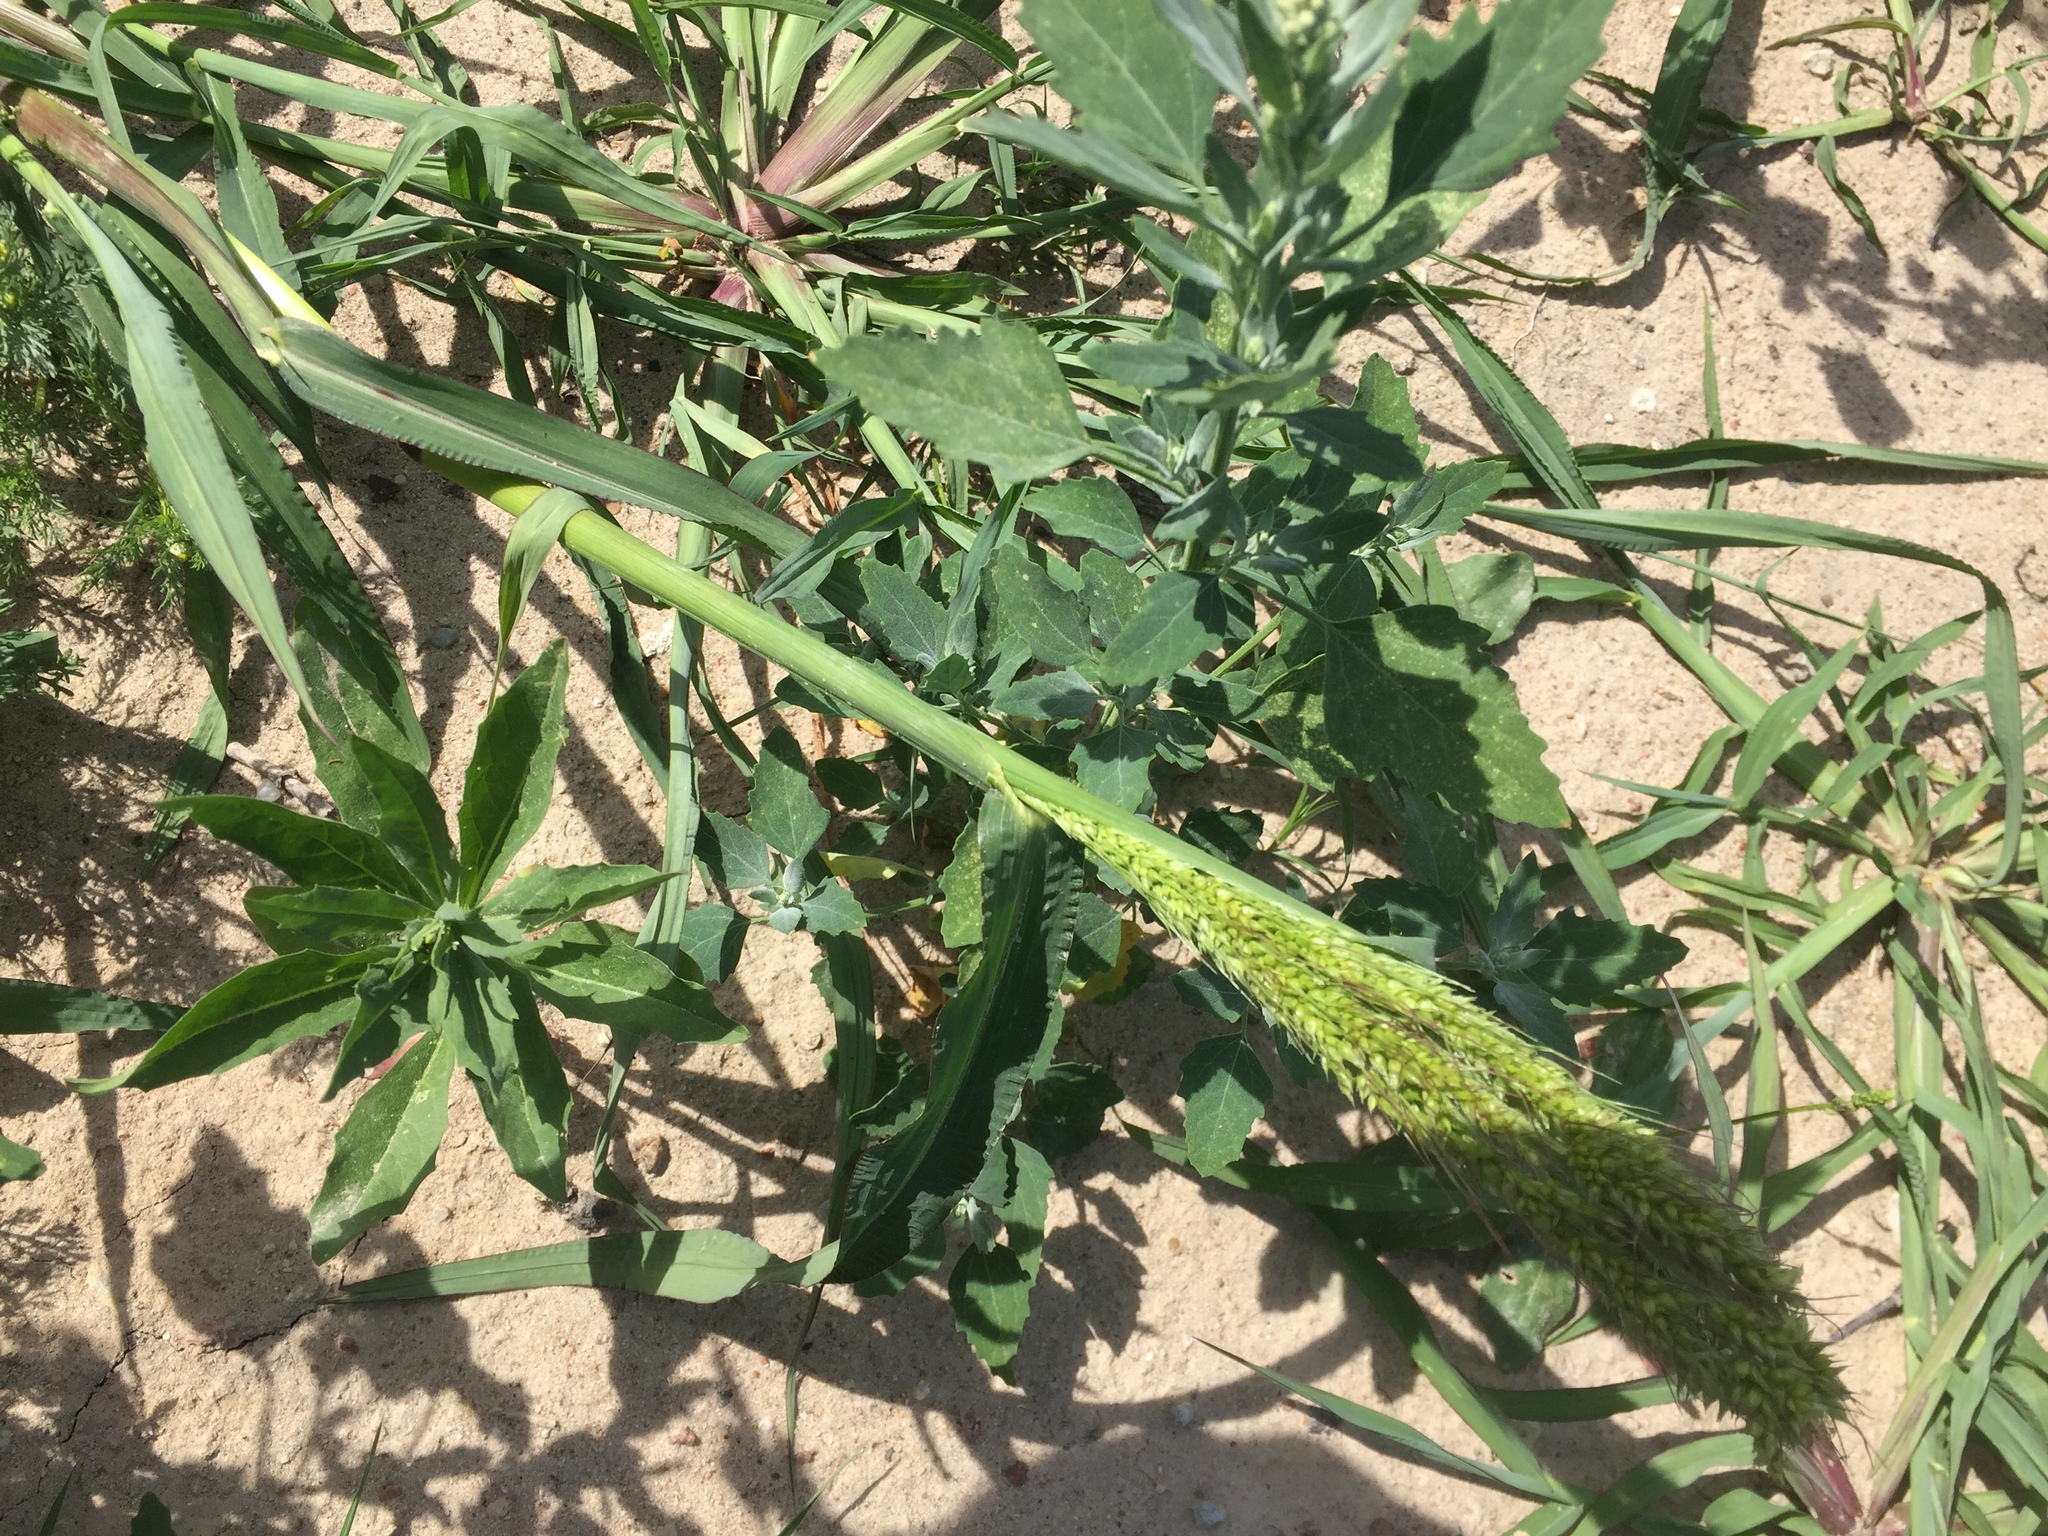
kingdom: Plantae
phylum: Tracheophyta
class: Liliopsida
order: Poales
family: Poaceae
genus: Echinochloa
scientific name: Echinochloa crus-galli
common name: Cockspur
